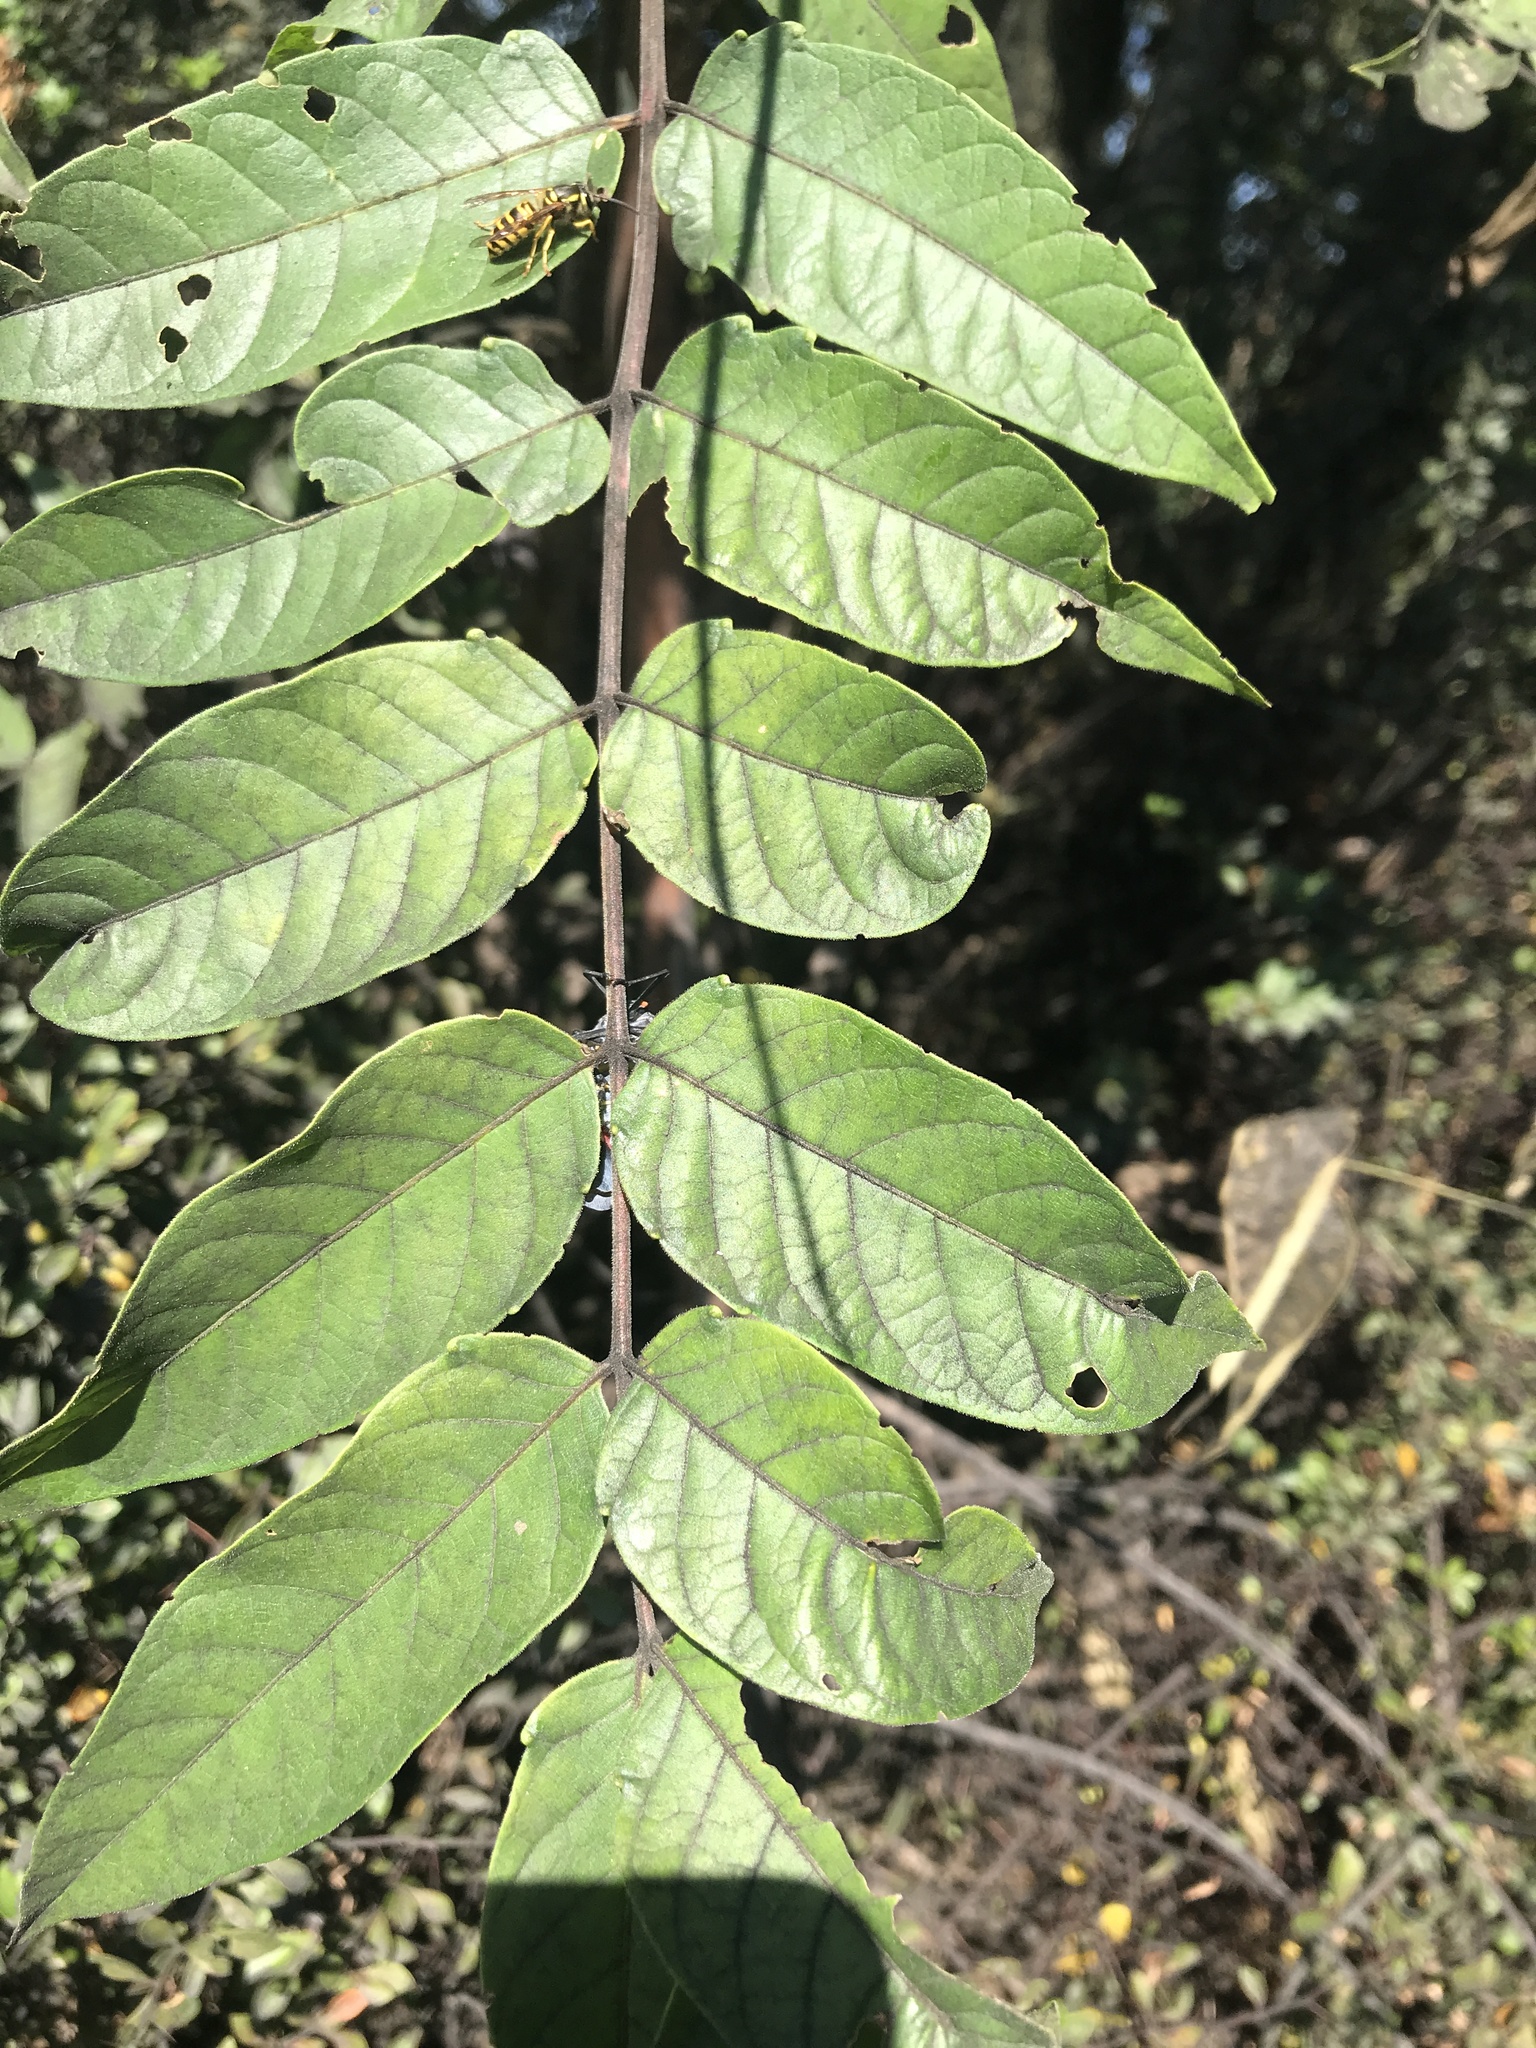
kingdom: Plantae
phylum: Tracheophyta
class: Magnoliopsida
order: Sapindales
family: Simaroubaceae
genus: Ailanthus
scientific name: Ailanthus altissima
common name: Tree-of-heaven
